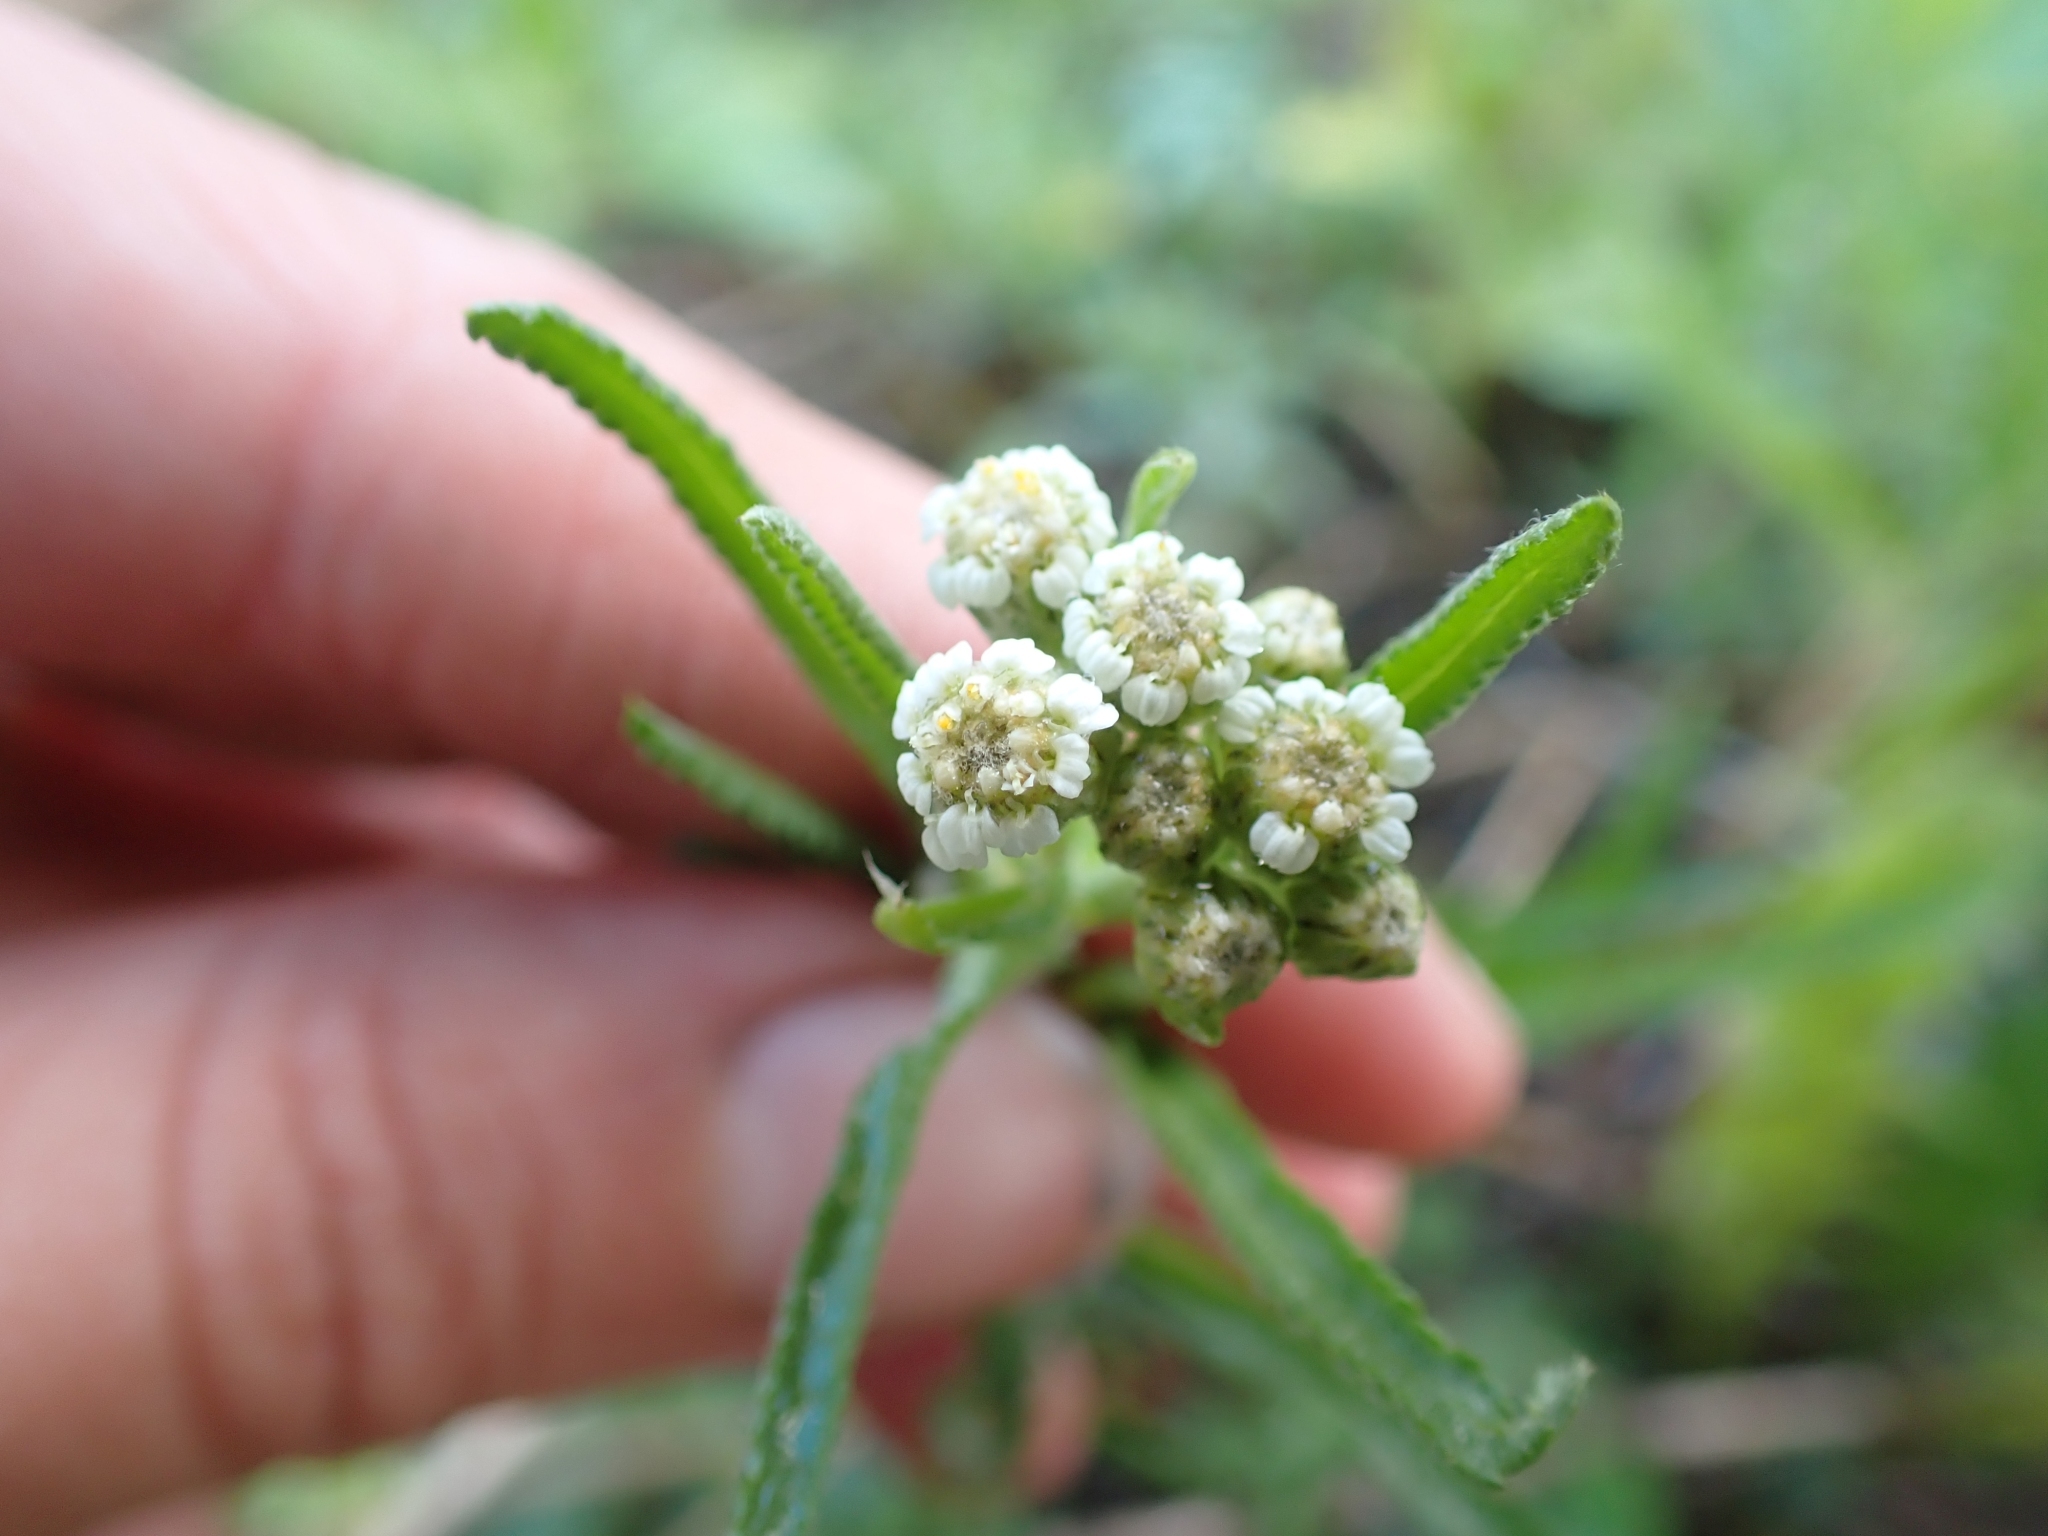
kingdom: Plantae
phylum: Tracheophyta
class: Magnoliopsida
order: Asterales
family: Asteraceae
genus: Achillea
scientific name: Achillea alpina
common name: Siberian yarrow
